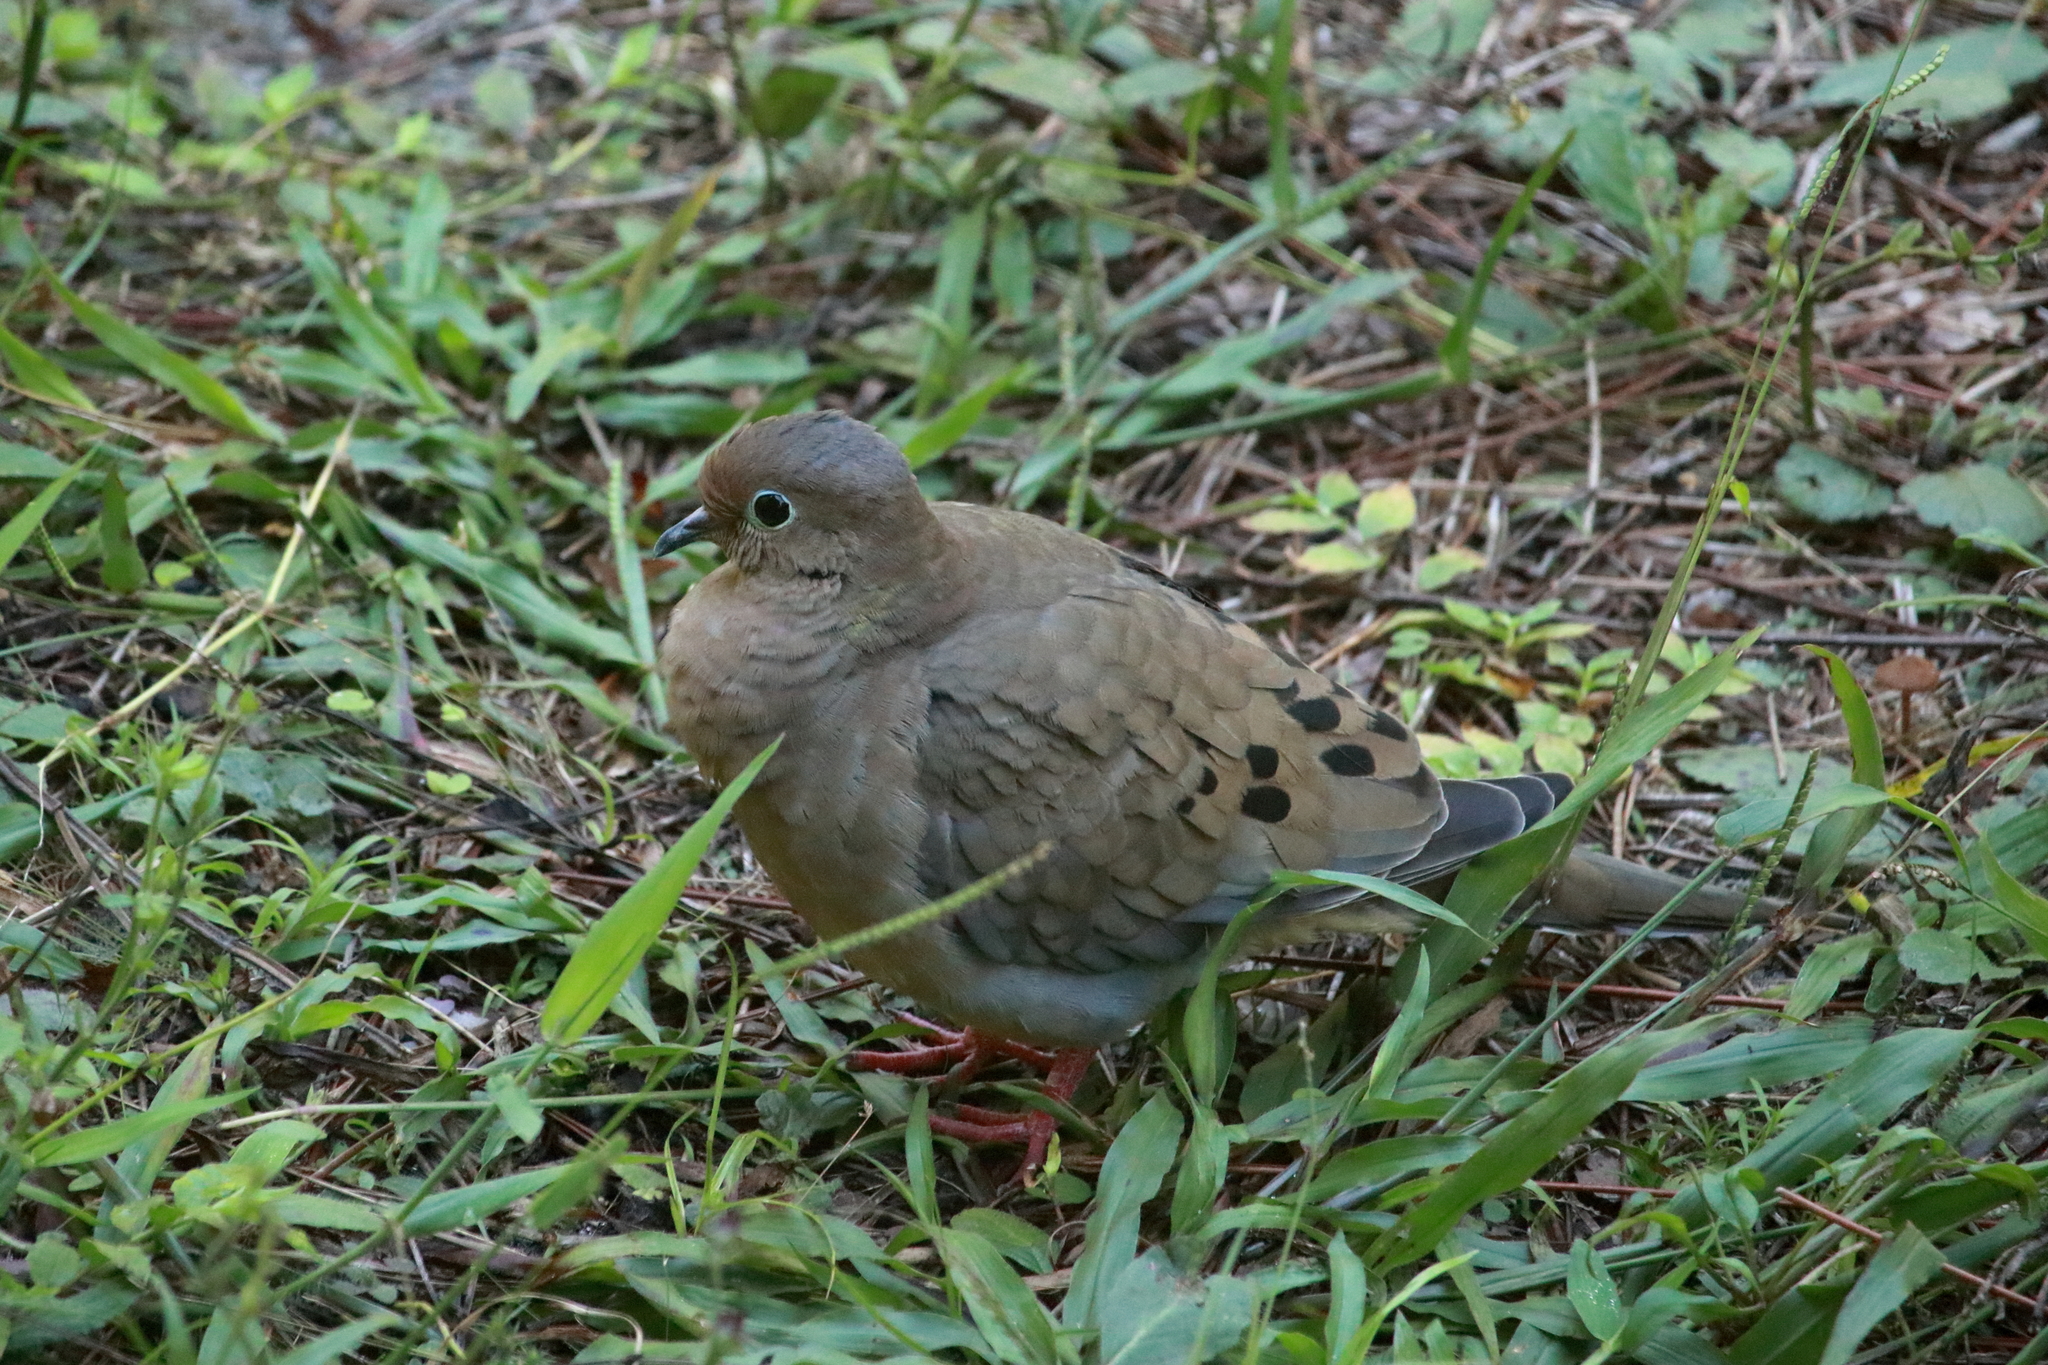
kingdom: Animalia
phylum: Chordata
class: Aves
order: Columbiformes
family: Columbidae
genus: Zenaida
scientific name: Zenaida macroura
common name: Mourning dove
